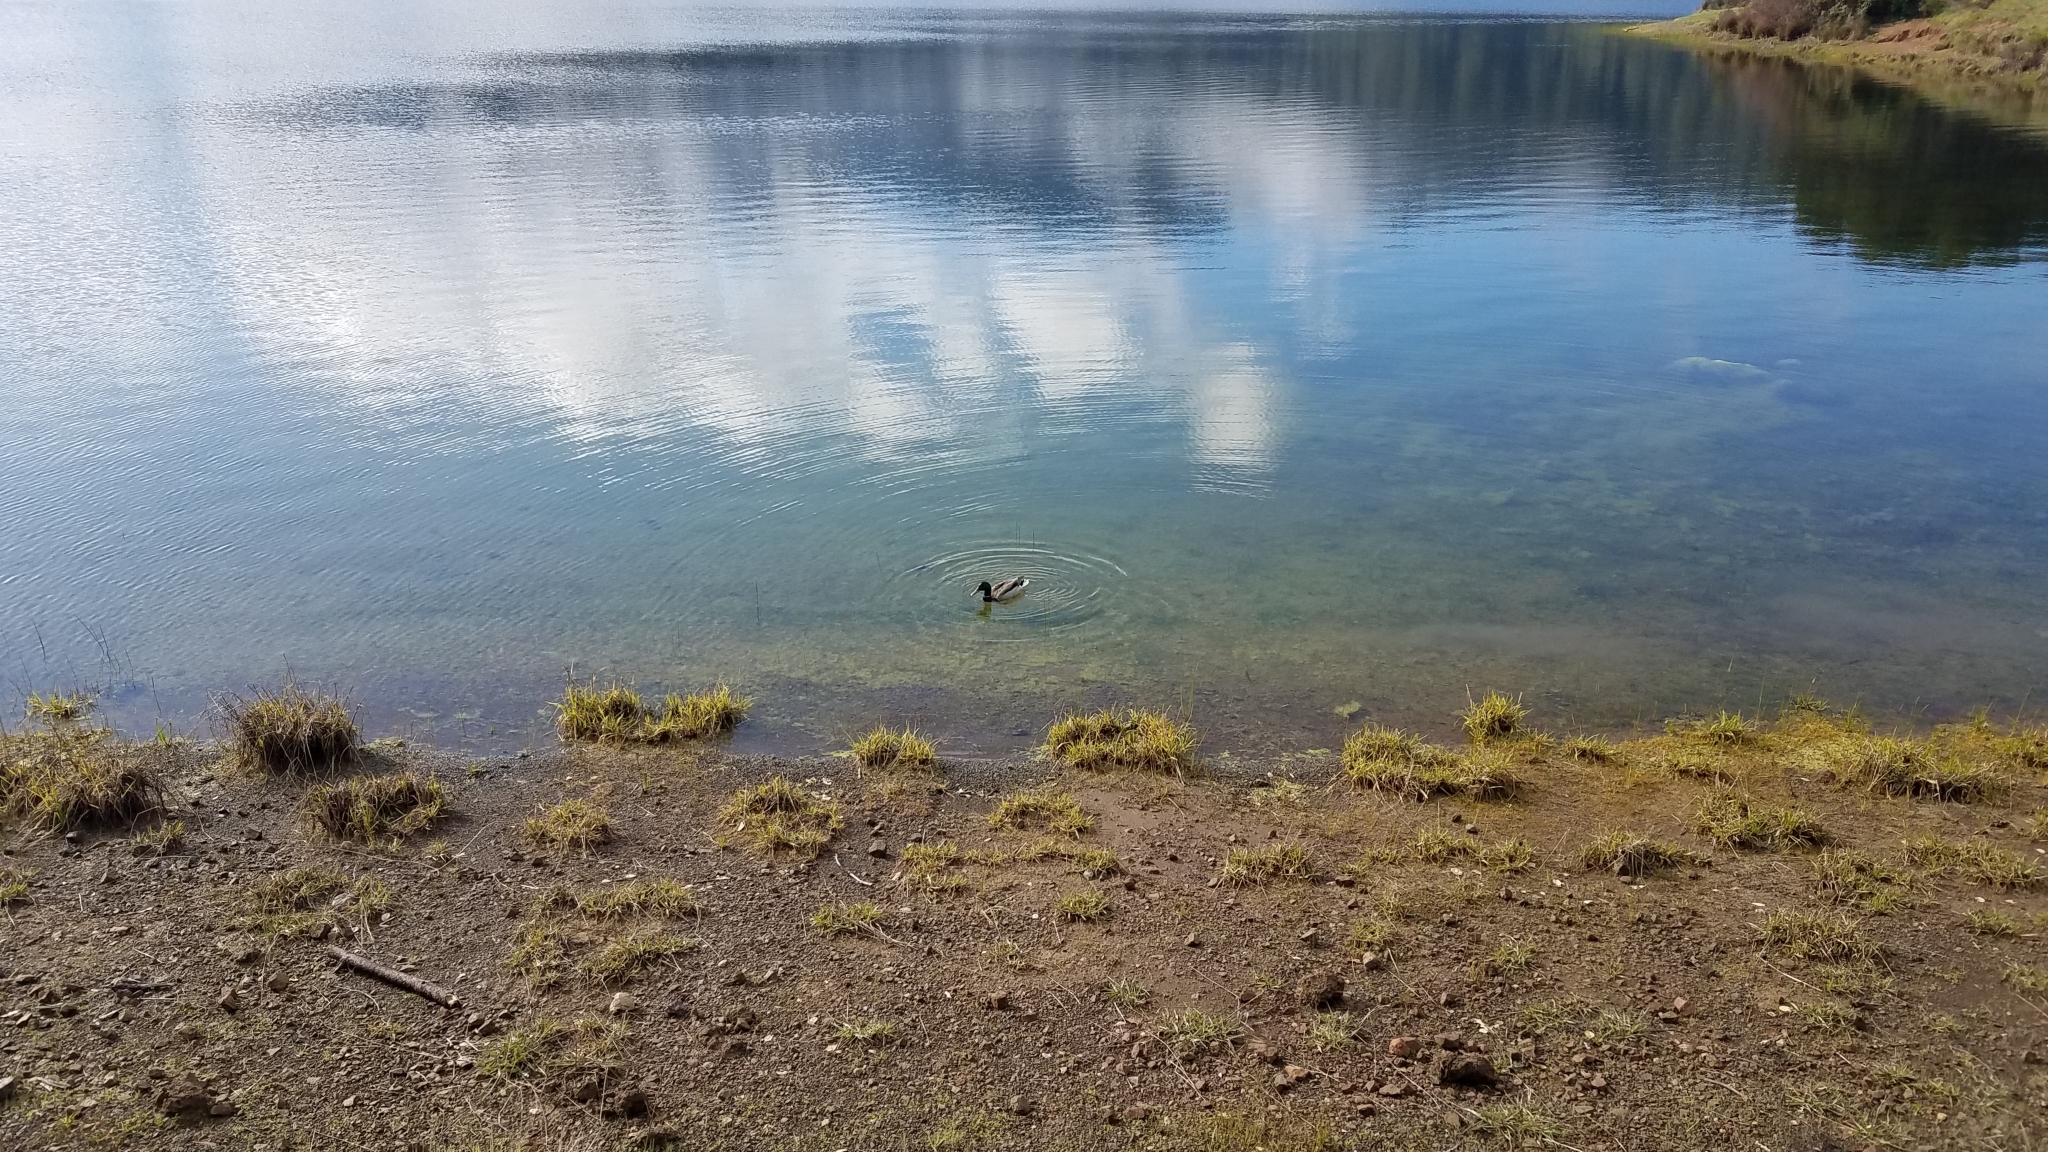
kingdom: Animalia
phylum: Chordata
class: Aves
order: Anseriformes
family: Anatidae
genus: Anas
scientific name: Anas platyrhynchos
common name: Mallard
